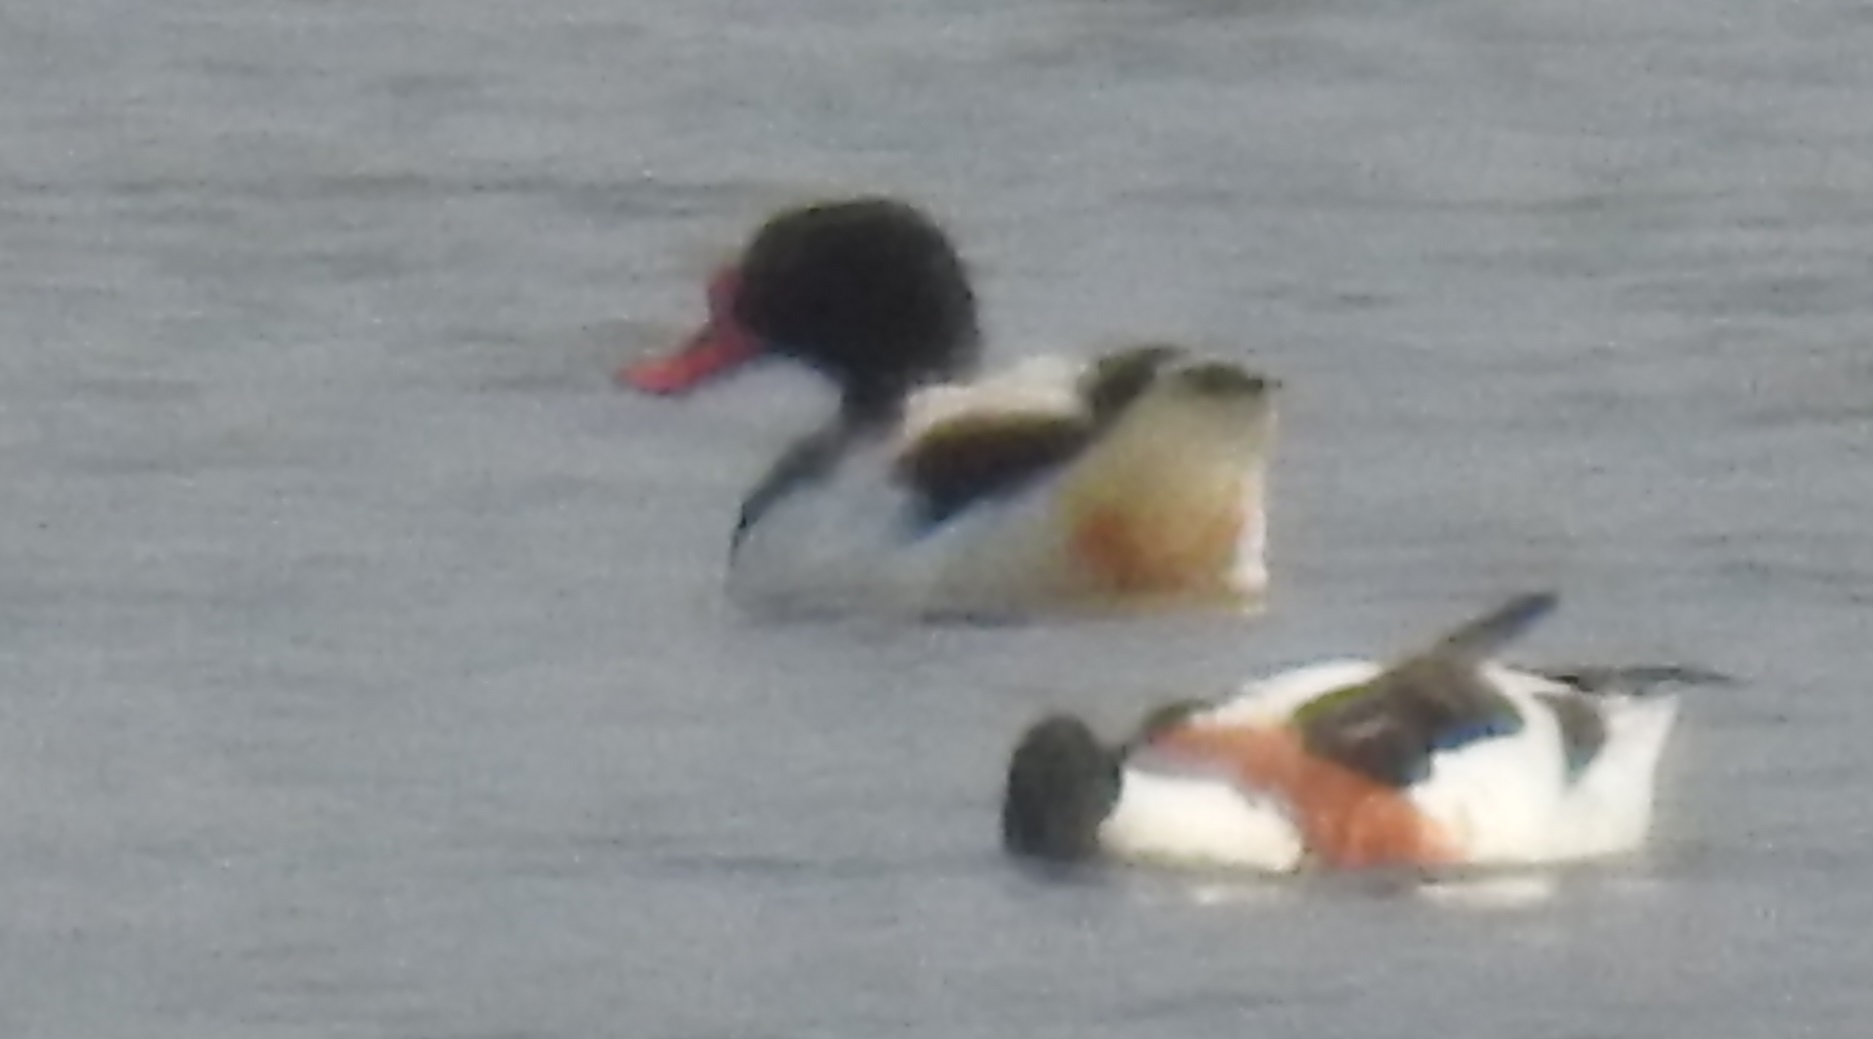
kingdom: Animalia
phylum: Chordata
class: Aves
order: Anseriformes
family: Anatidae
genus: Tadorna
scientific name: Tadorna tadorna
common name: Common shelduck
